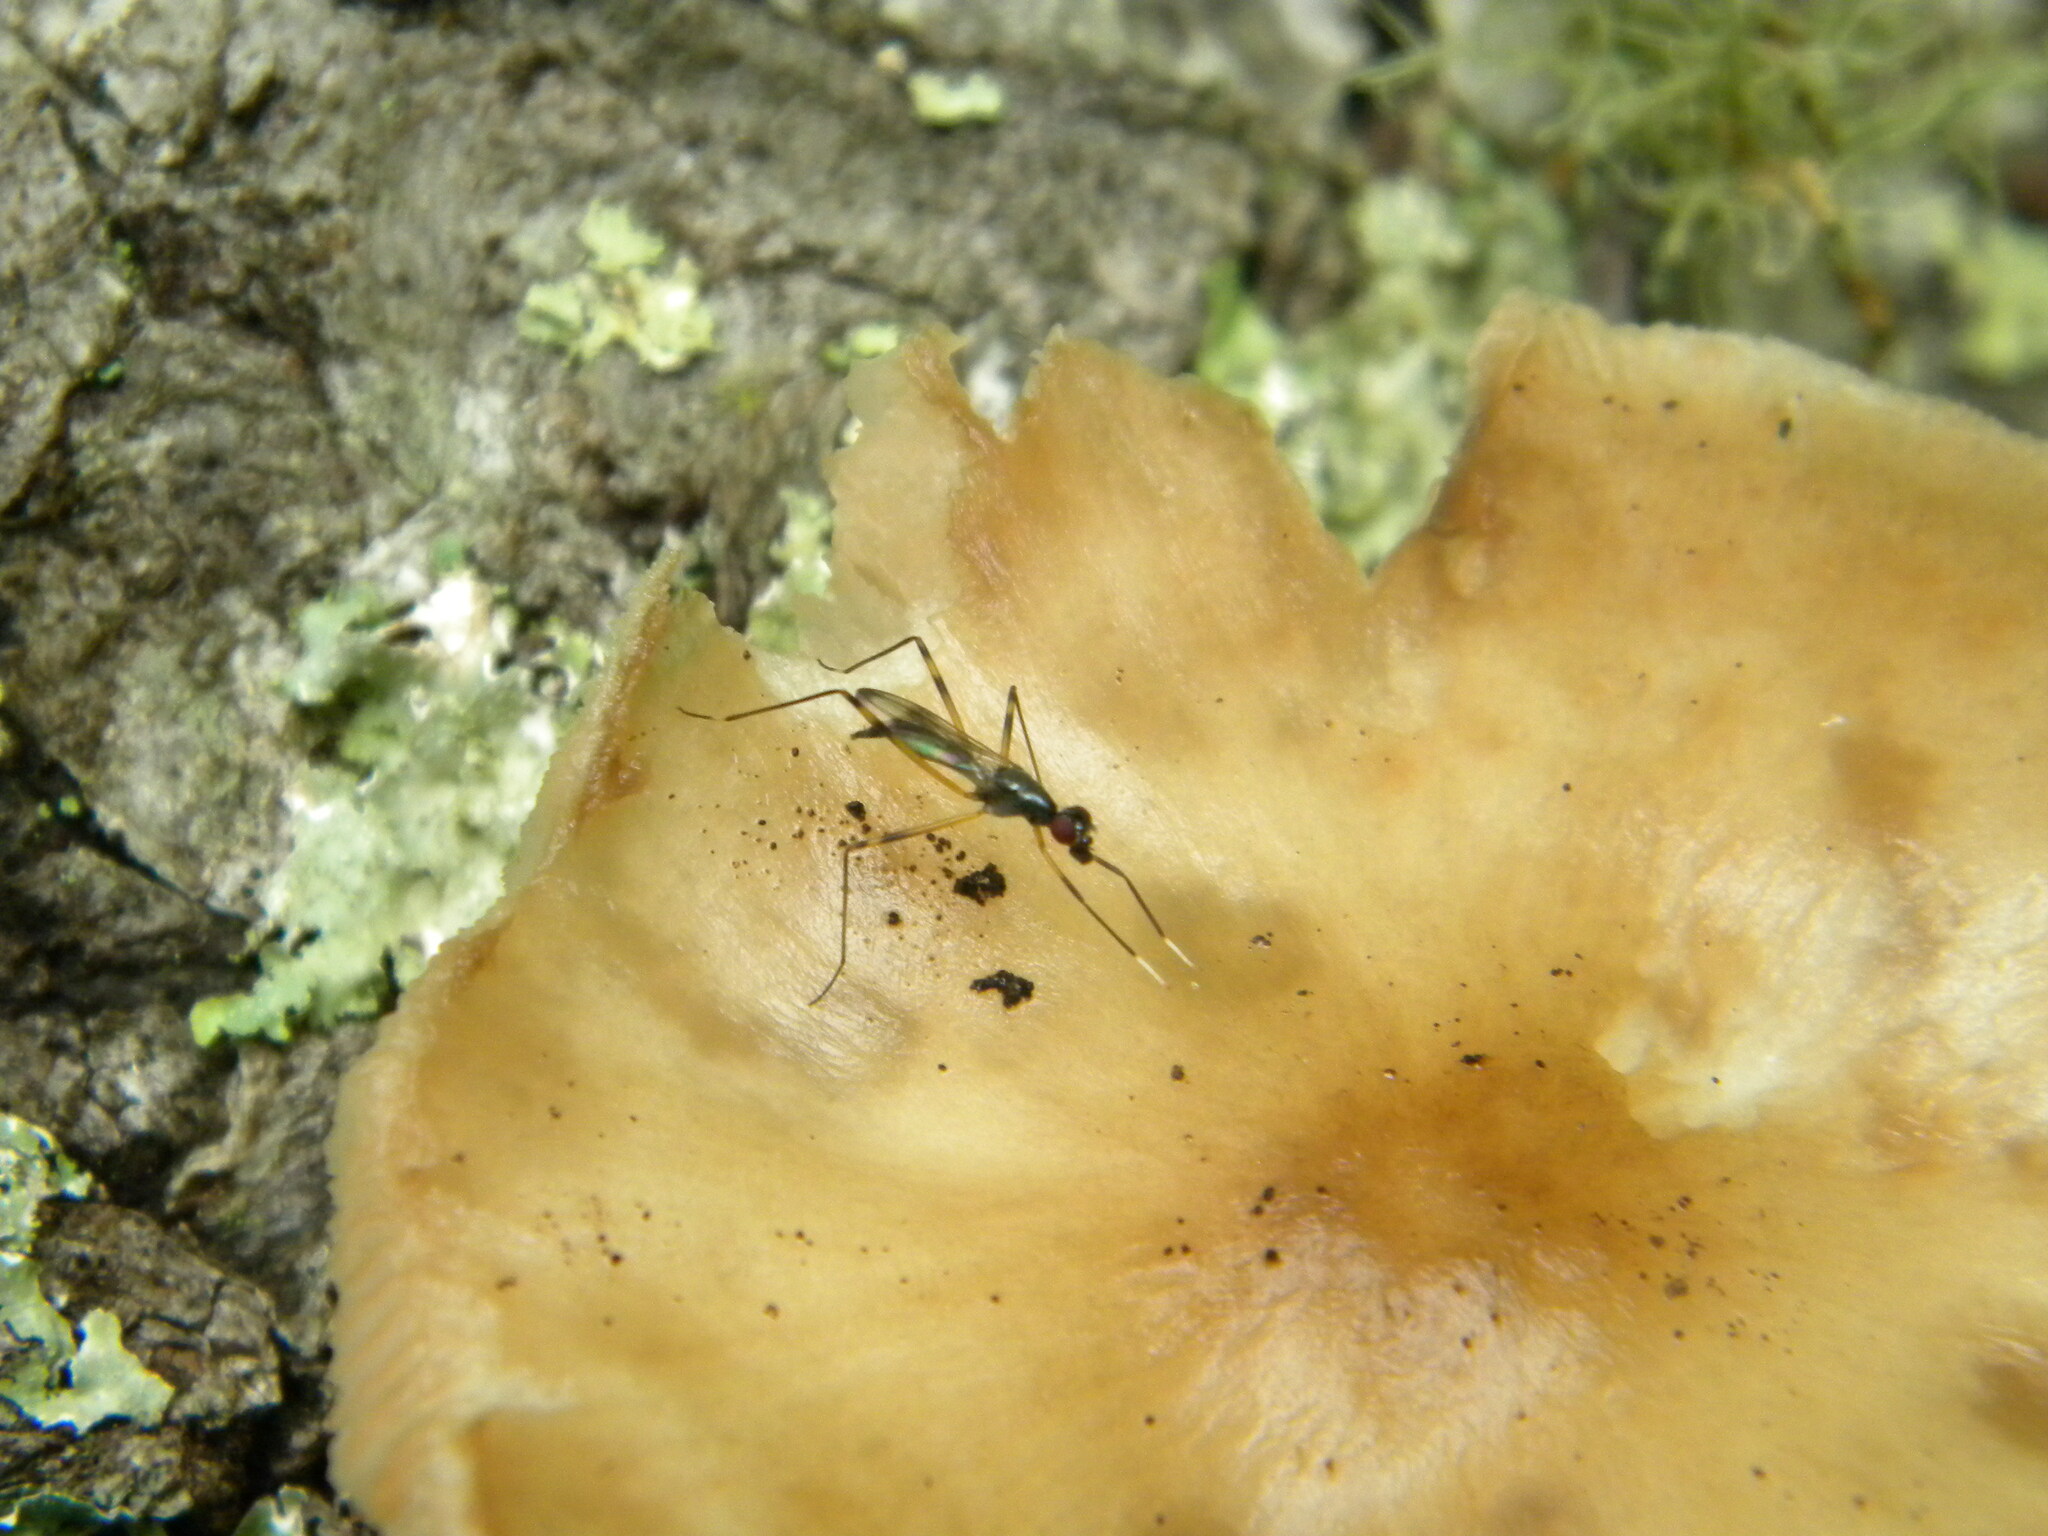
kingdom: Animalia
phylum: Arthropoda
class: Insecta
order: Diptera
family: Micropezidae
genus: Rainieria
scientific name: Rainieria antennaepes
